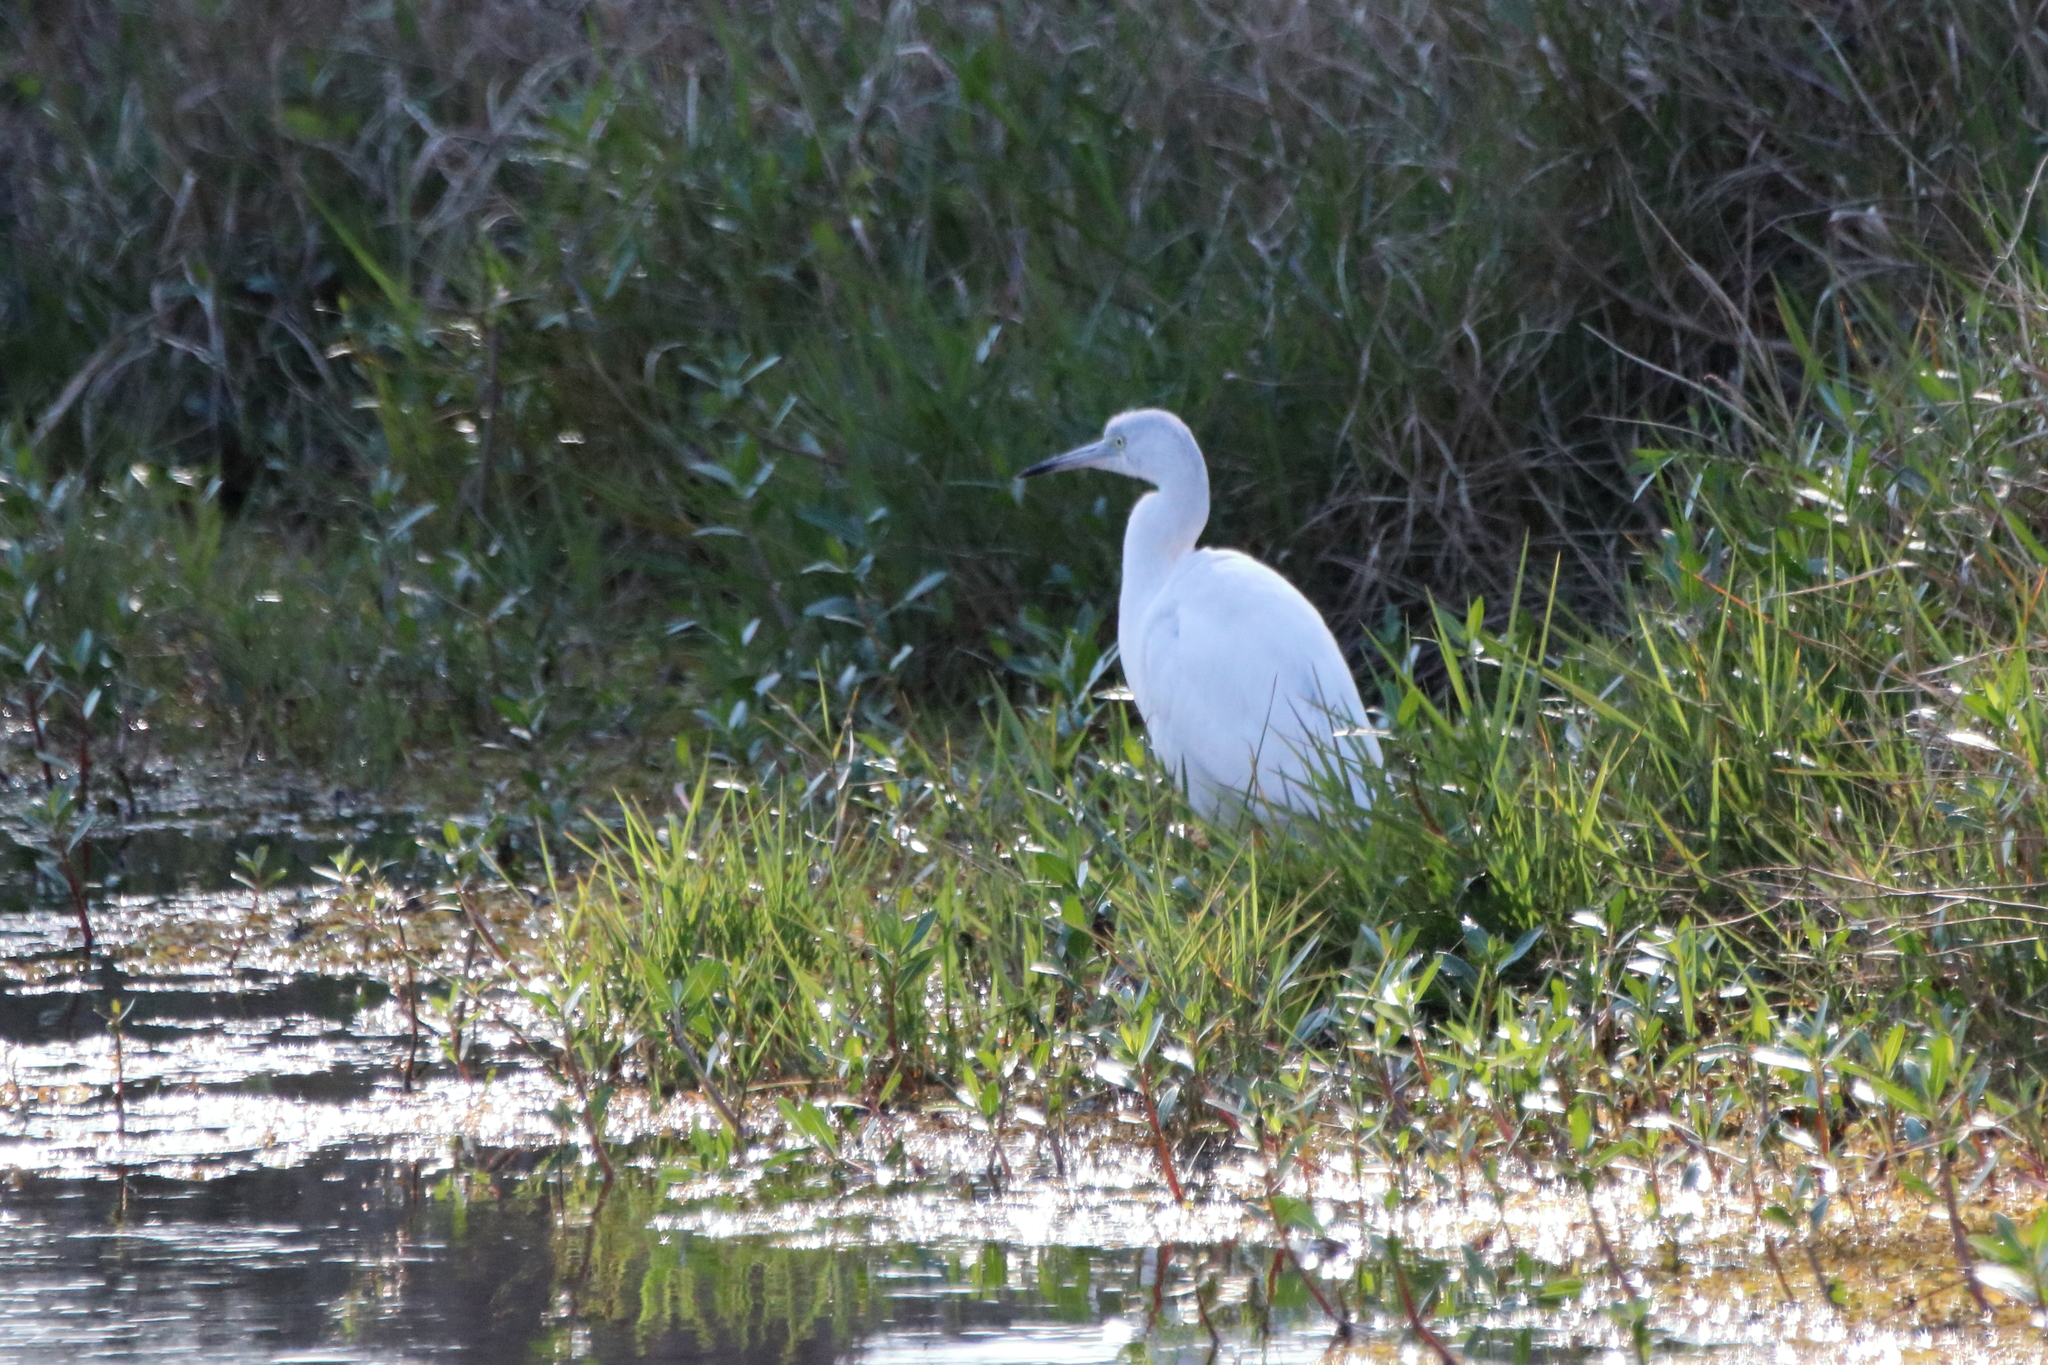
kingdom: Animalia
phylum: Chordata
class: Aves
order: Pelecaniformes
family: Ardeidae
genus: Egretta
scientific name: Egretta caerulea
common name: Little blue heron
